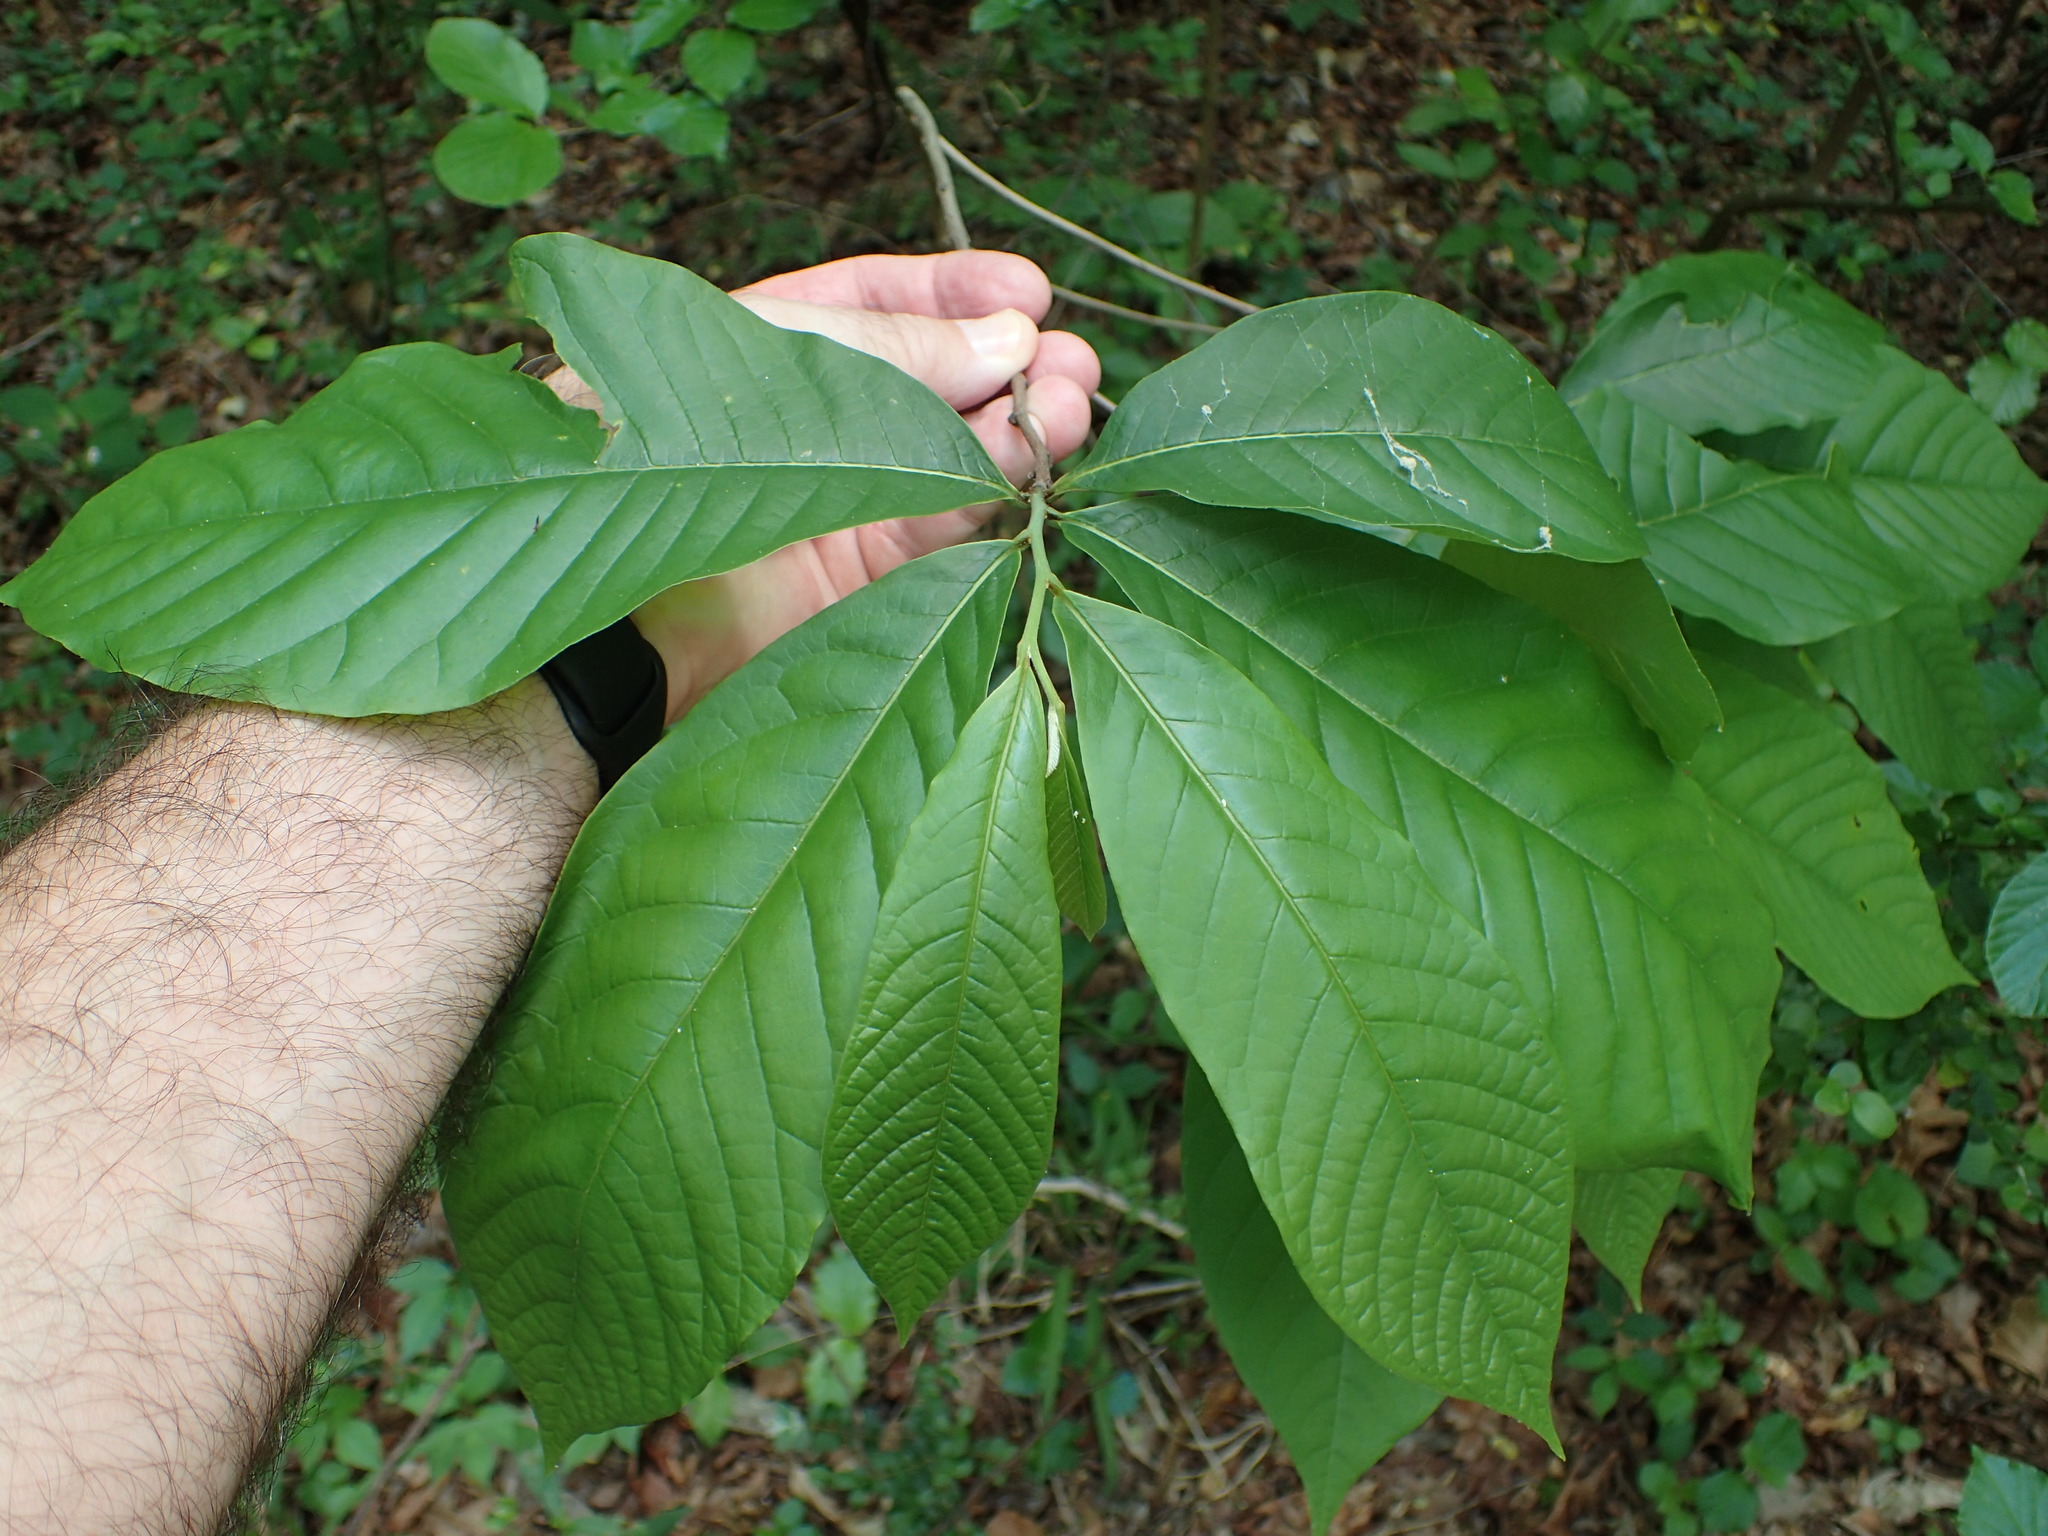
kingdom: Plantae
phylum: Tracheophyta
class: Magnoliopsida
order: Magnoliales
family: Annonaceae
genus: Asimina
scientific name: Asimina triloba
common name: Dog-banana
